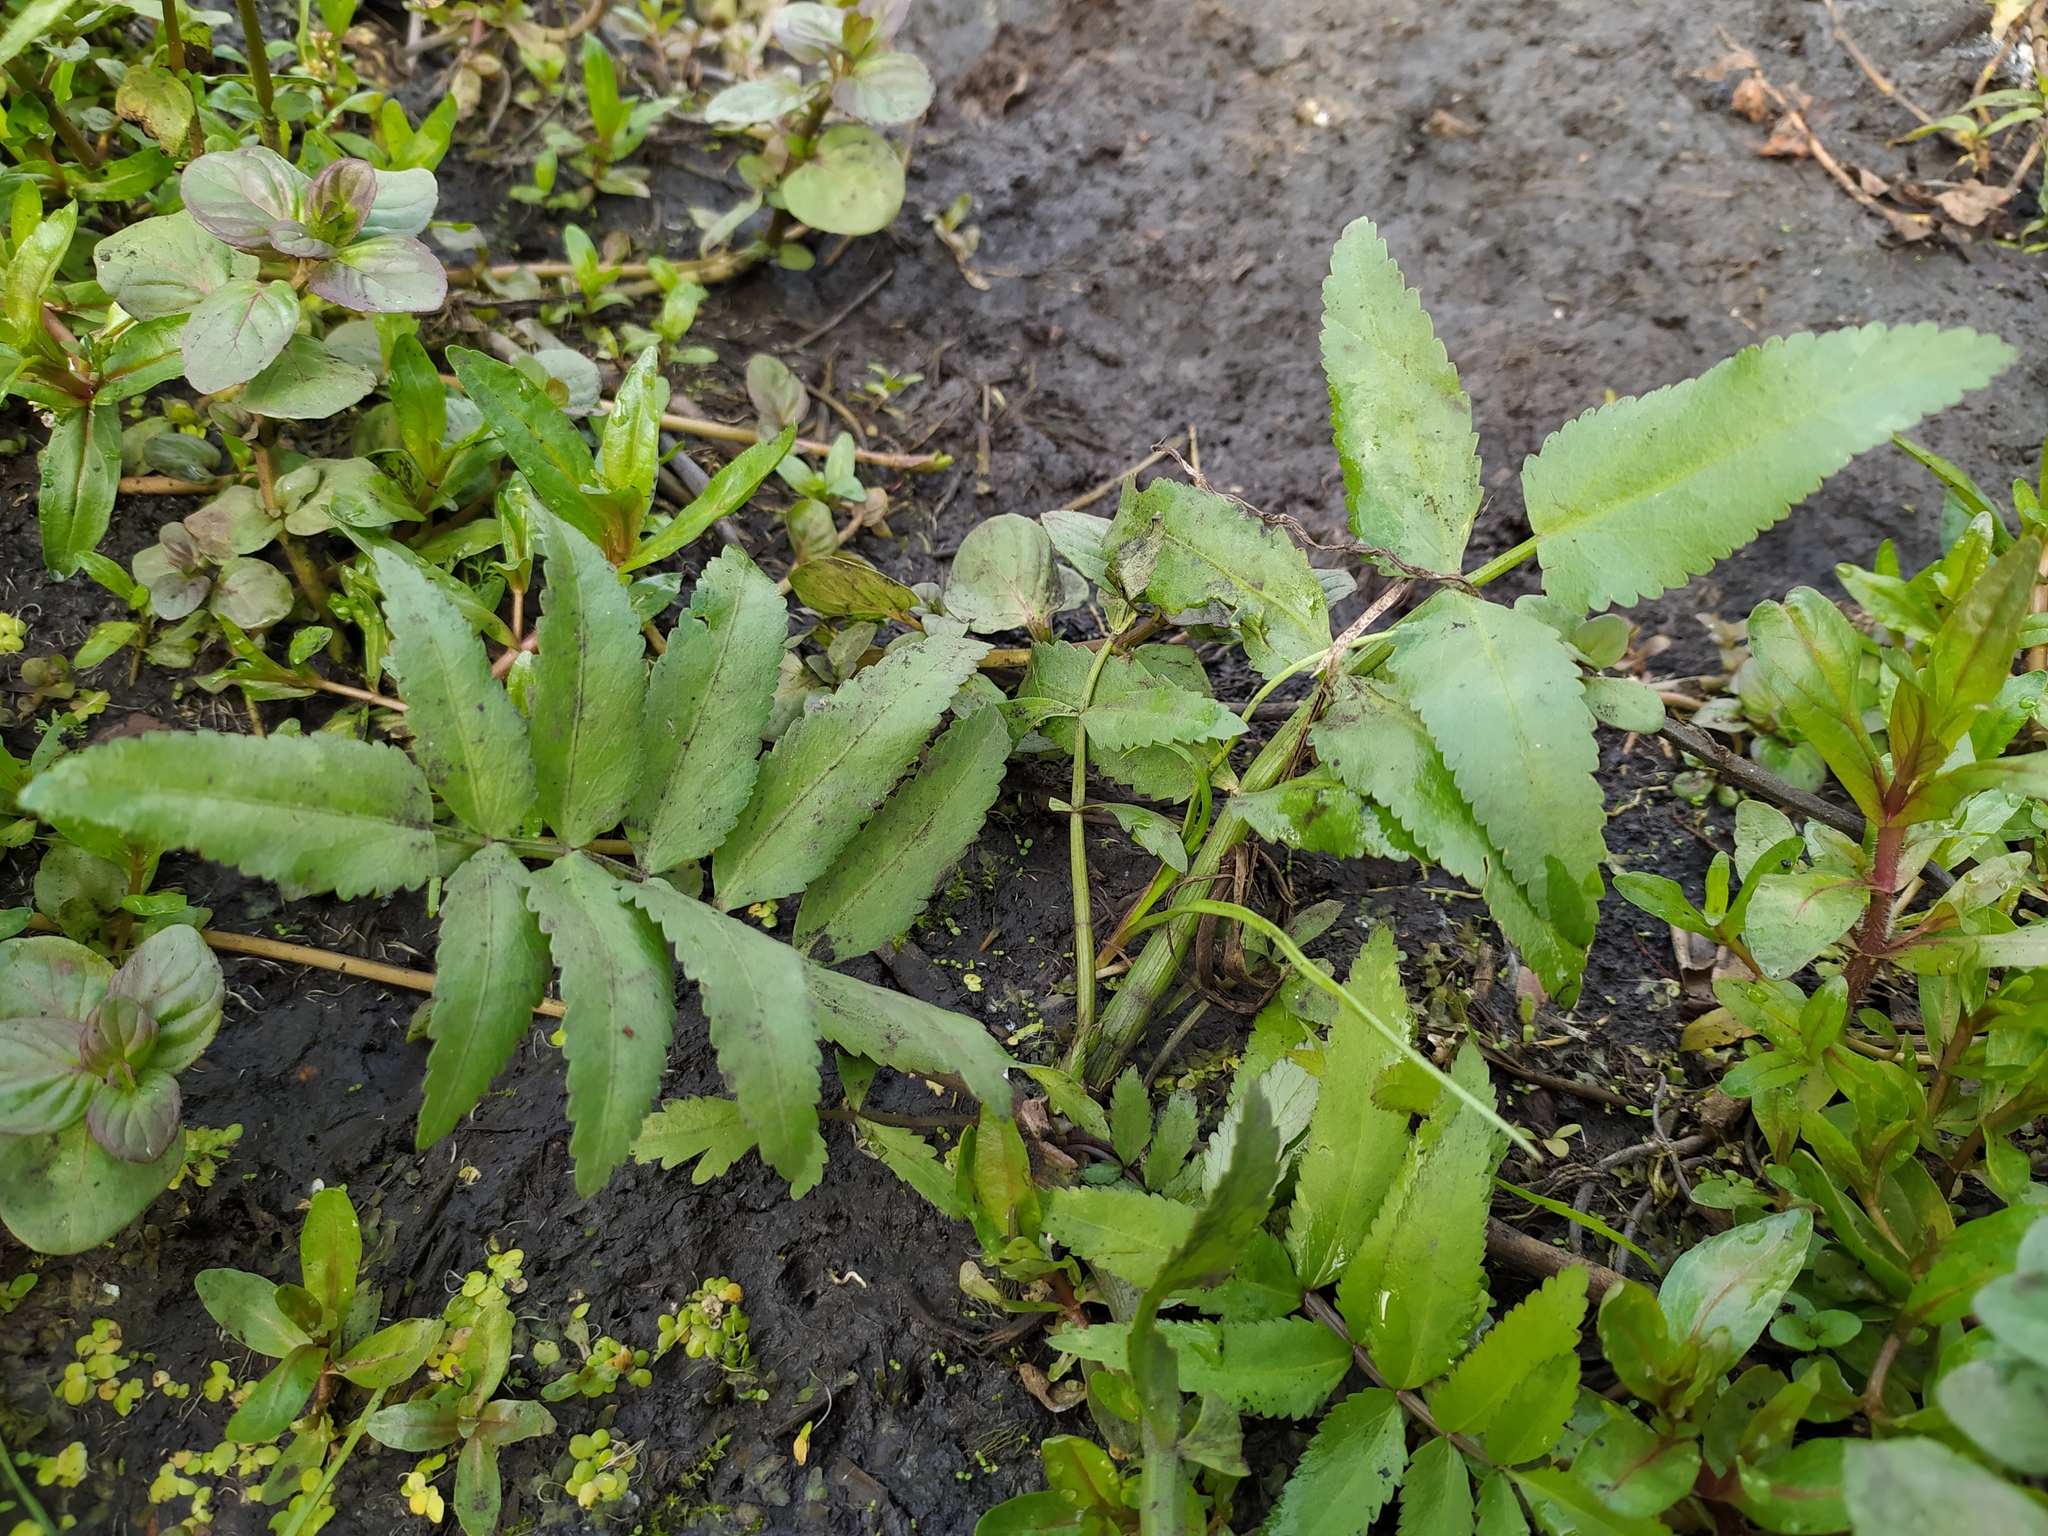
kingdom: Plantae
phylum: Tracheophyta
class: Magnoliopsida
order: Apiales
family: Apiaceae
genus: Sium
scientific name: Sium latifolium
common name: Greater water-parsnip
